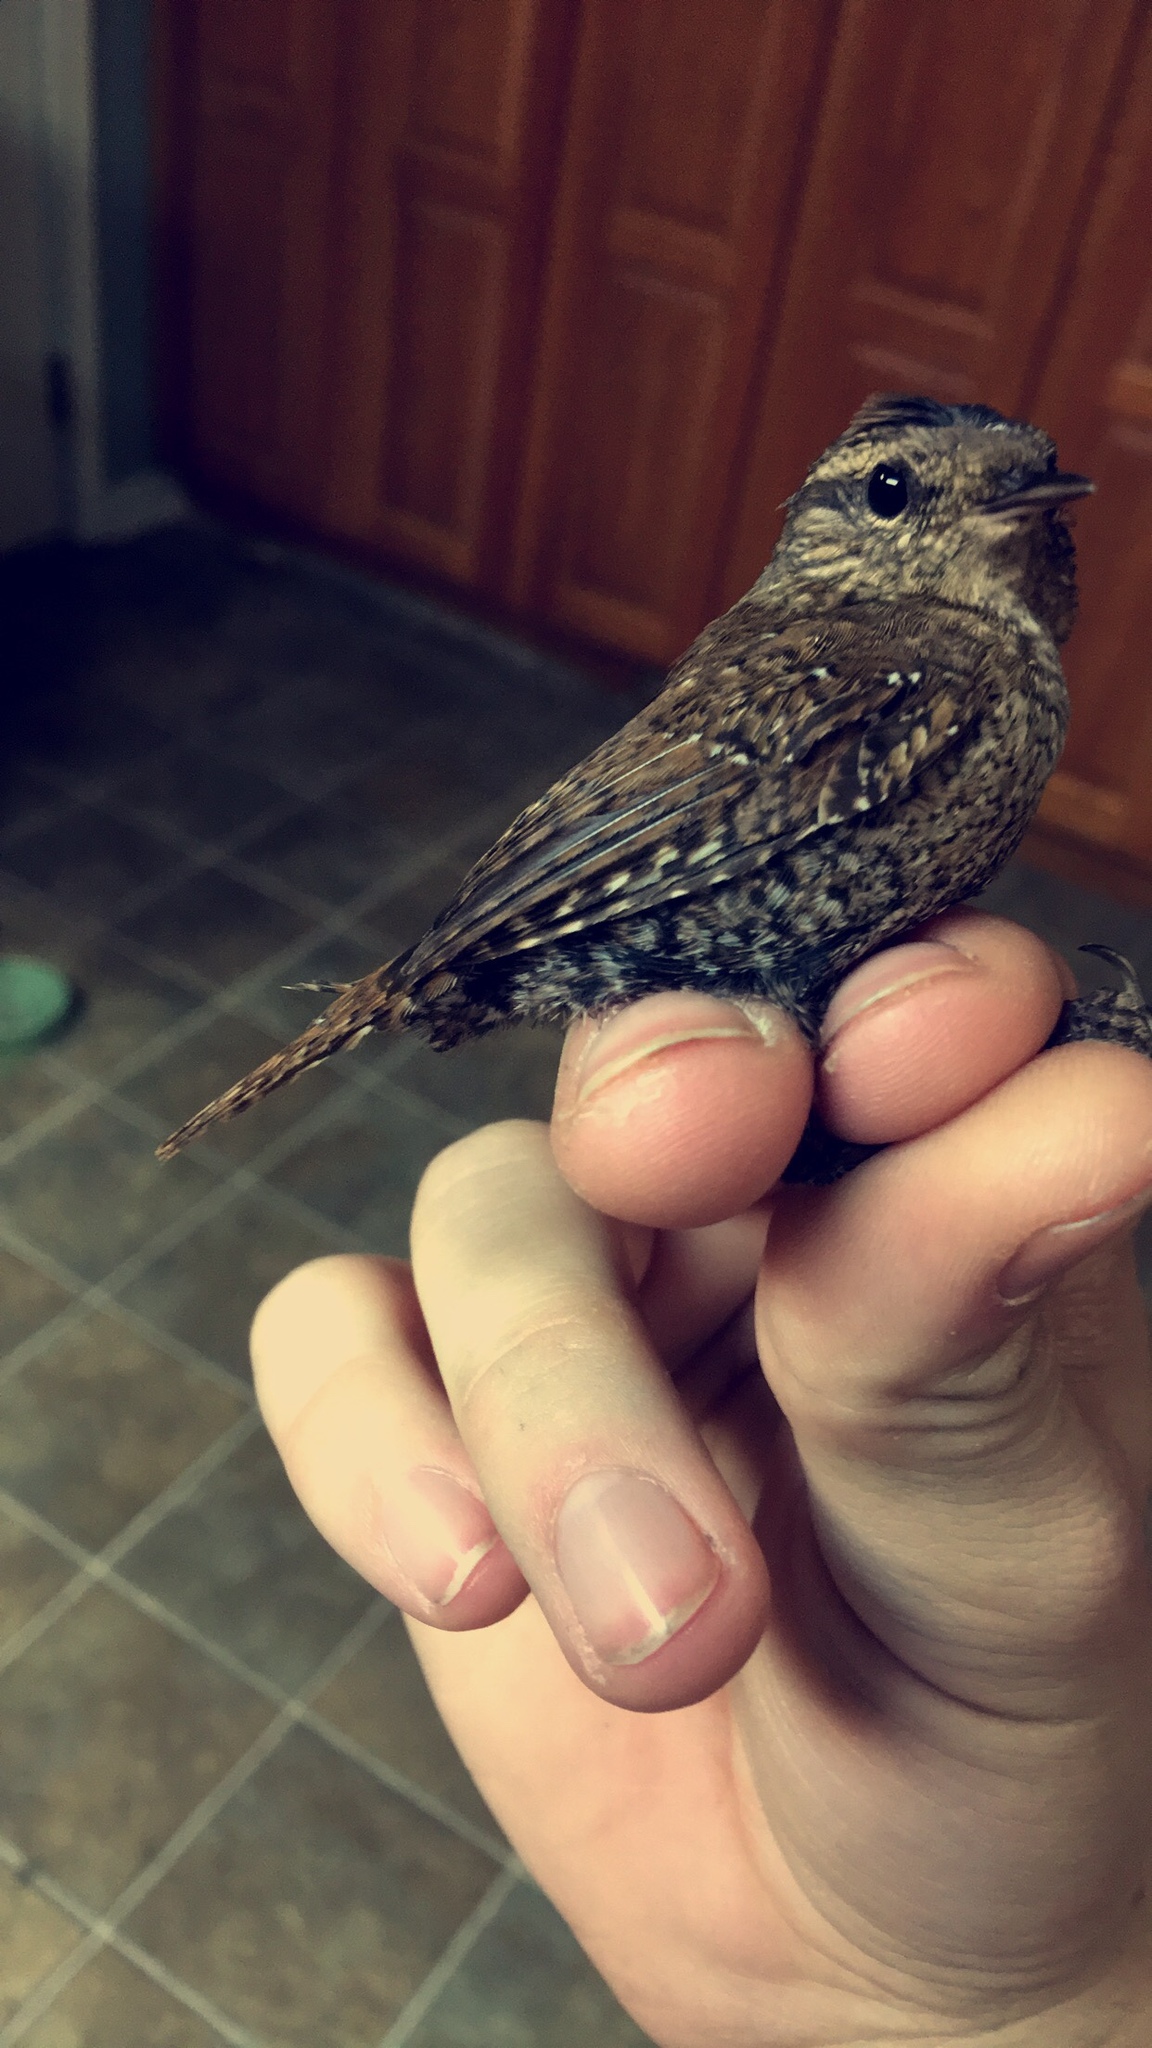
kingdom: Animalia
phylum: Chordata
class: Aves
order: Passeriformes
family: Troglodytidae
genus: Troglodytes
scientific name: Troglodytes hiemalis
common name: Winter wren
